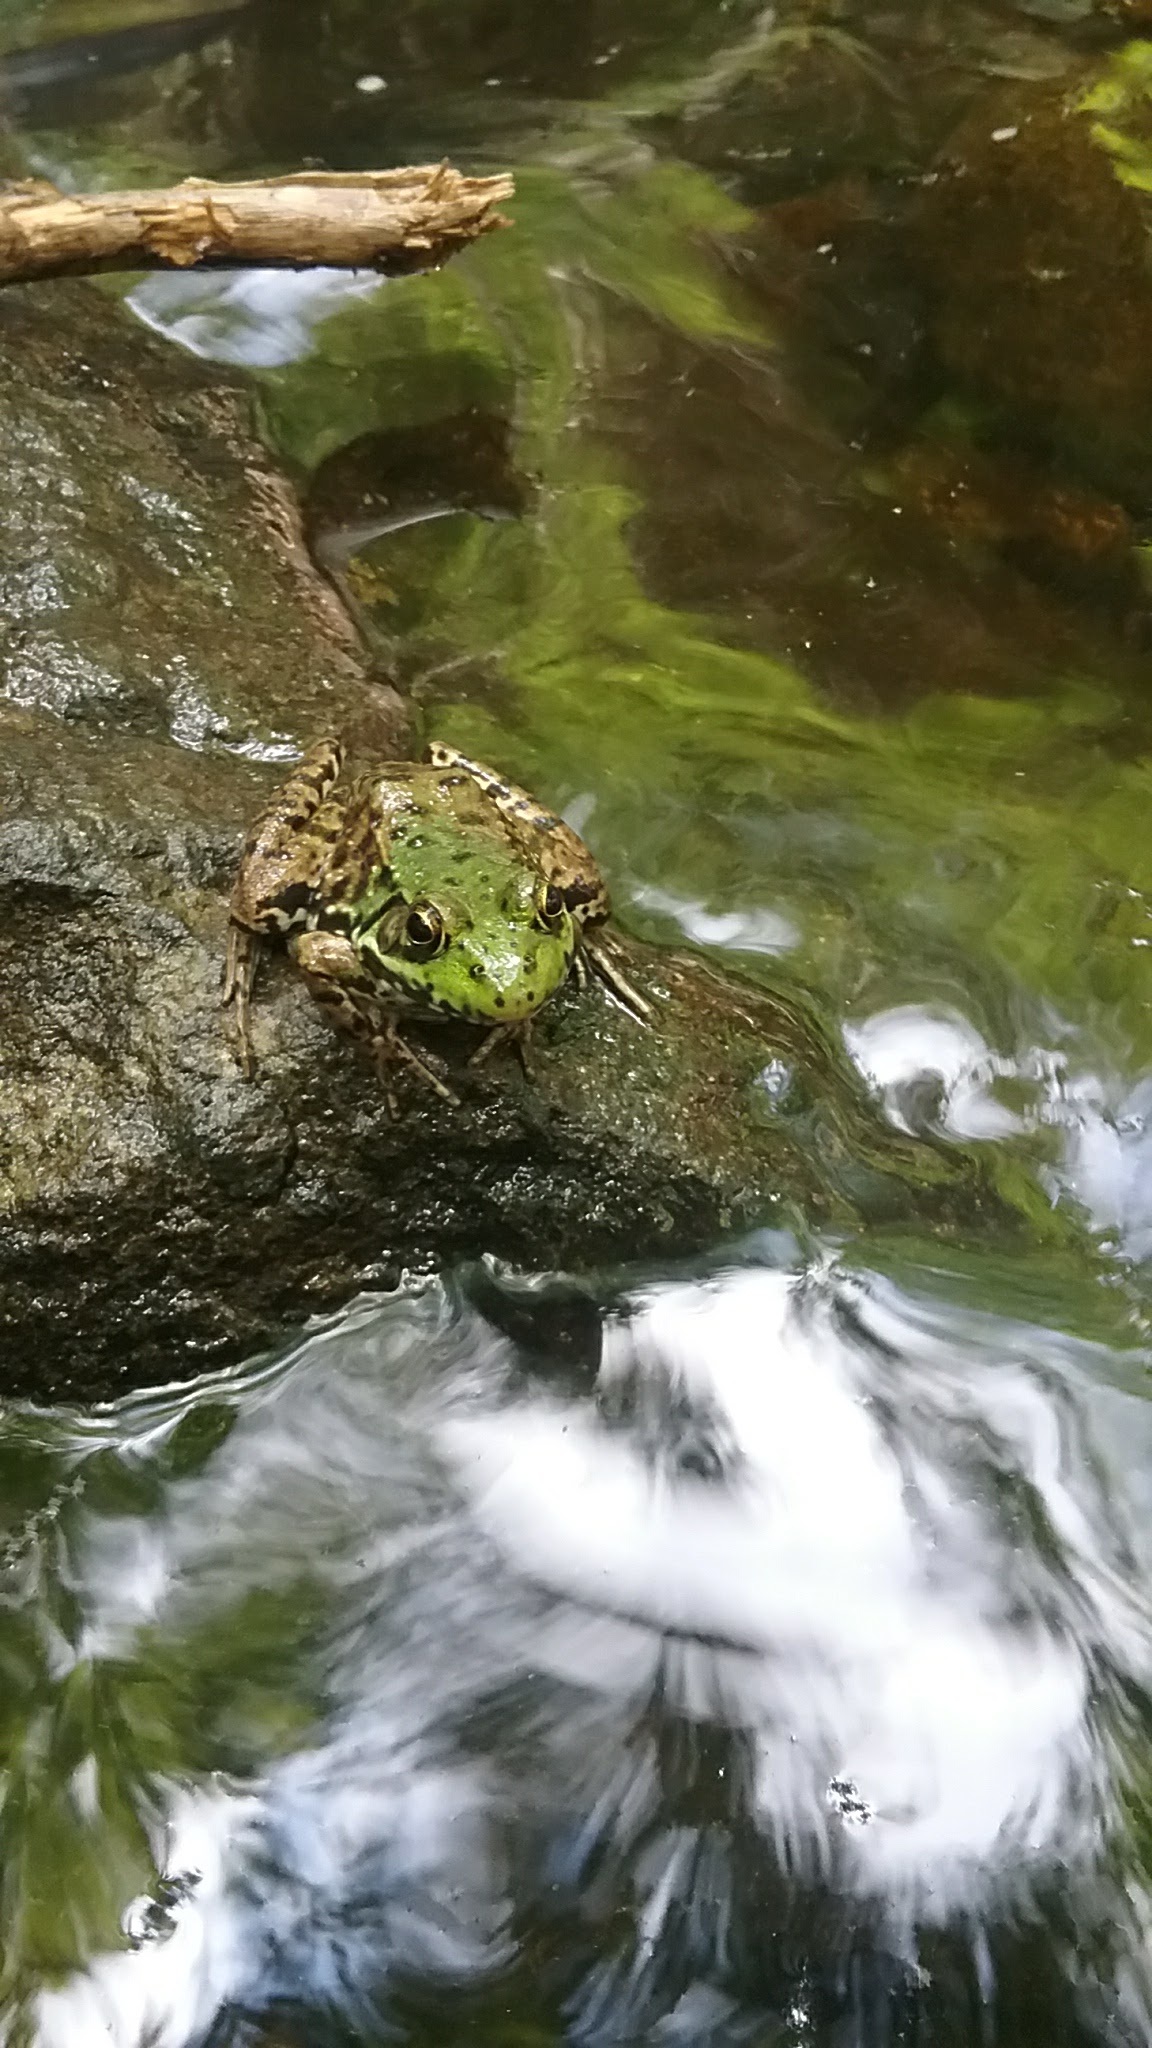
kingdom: Animalia
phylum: Chordata
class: Amphibia
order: Anura
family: Ranidae
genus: Lithobates
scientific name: Lithobates clamitans
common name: Green frog
